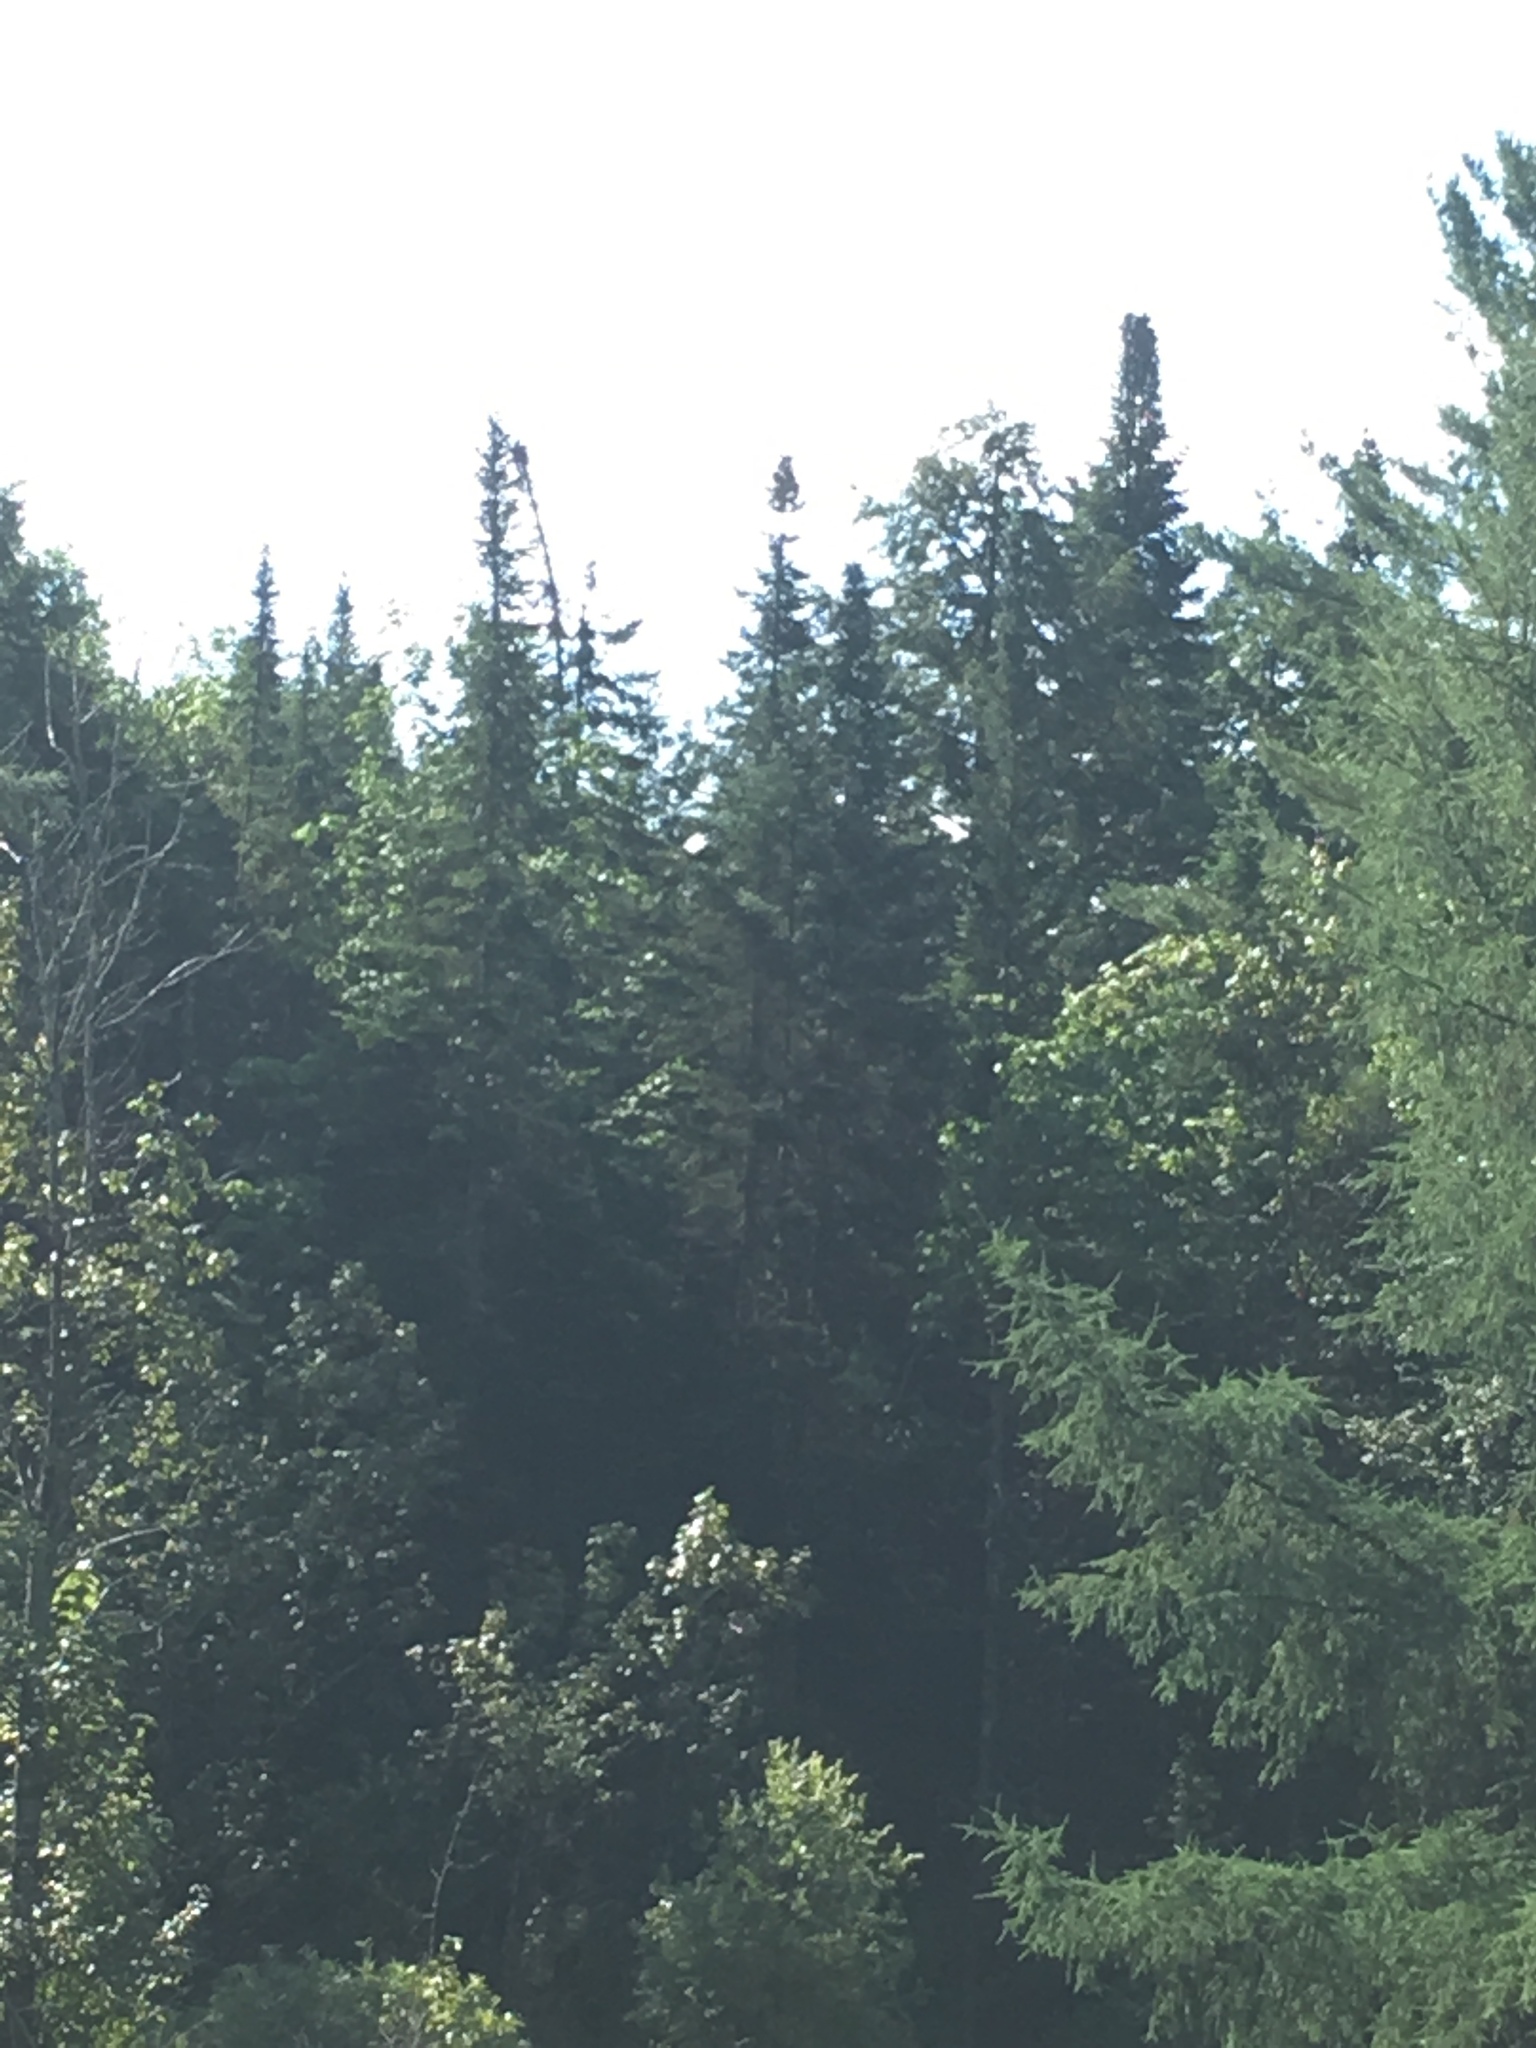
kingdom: Plantae
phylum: Tracheophyta
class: Pinopsida
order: Pinales
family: Pinaceae
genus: Abies
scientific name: Abies balsamea
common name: Balsam fir
